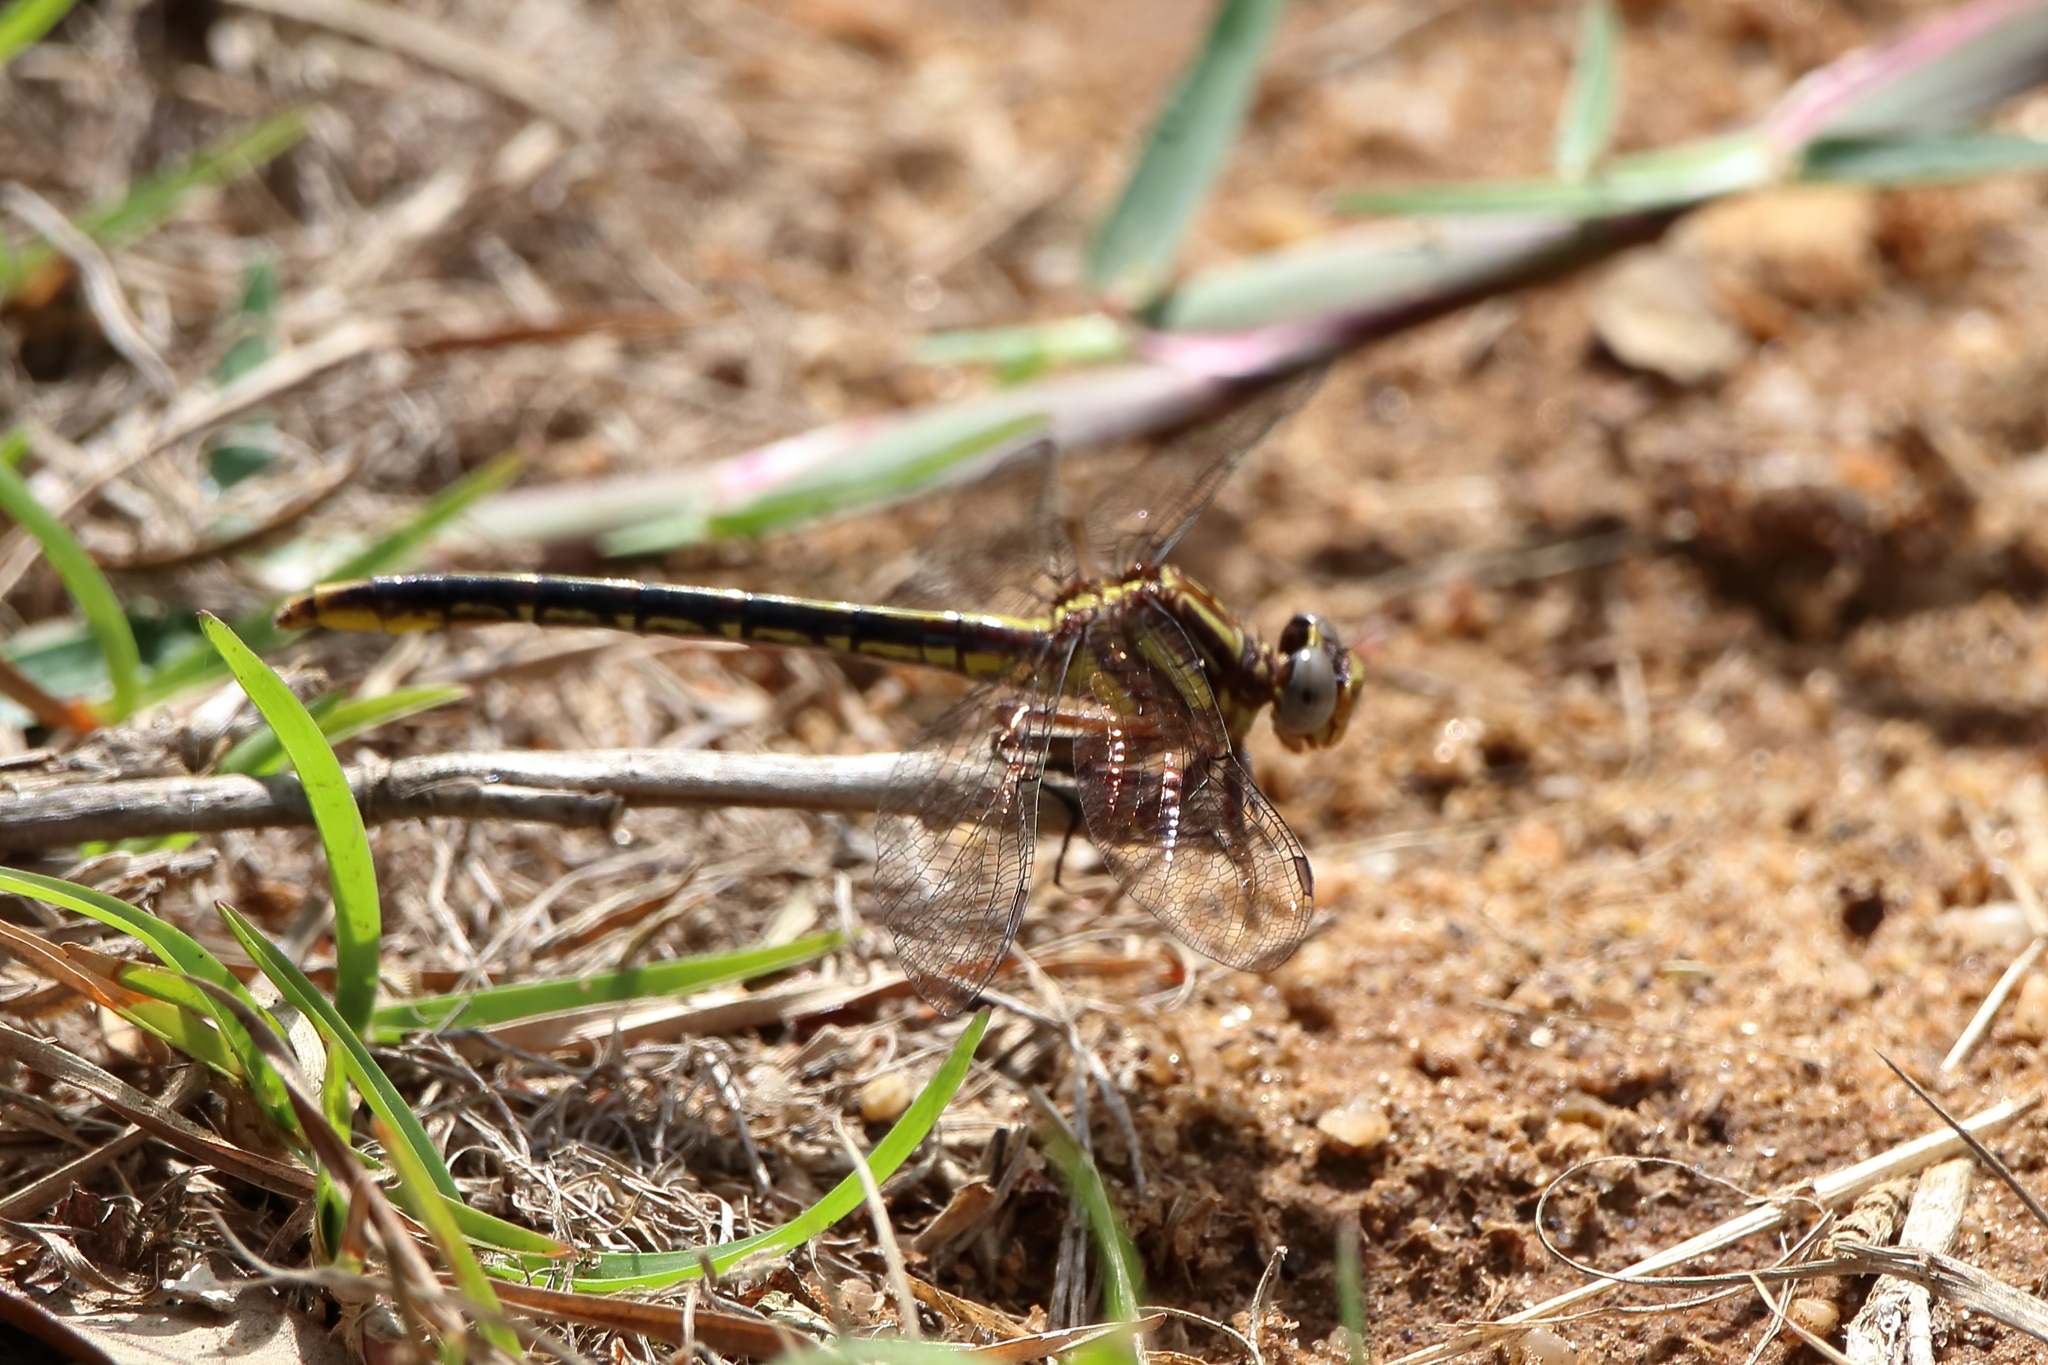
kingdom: Animalia
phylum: Arthropoda
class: Insecta
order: Odonata
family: Gomphidae
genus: Phanogomphus
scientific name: Phanogomphus exilis
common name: Lancet clubtail
